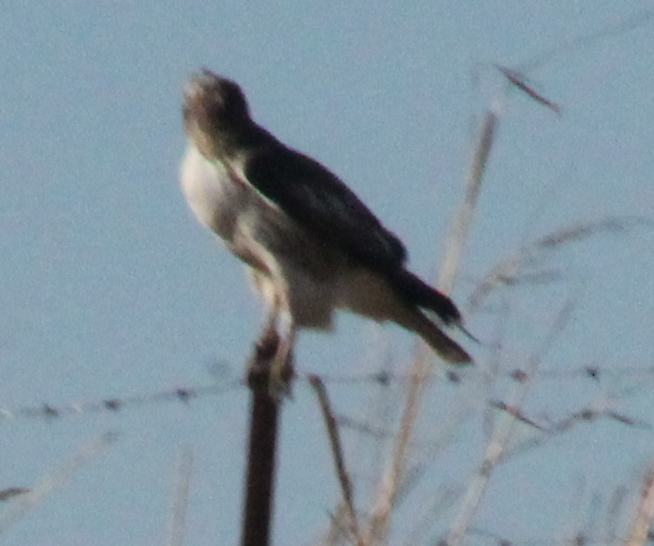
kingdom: Animalia
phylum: Chordata
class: Aves
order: Accipitriformes
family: Accipitridae
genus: Buteo
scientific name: Buteo jamaicensis
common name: Red-tailed hawk
